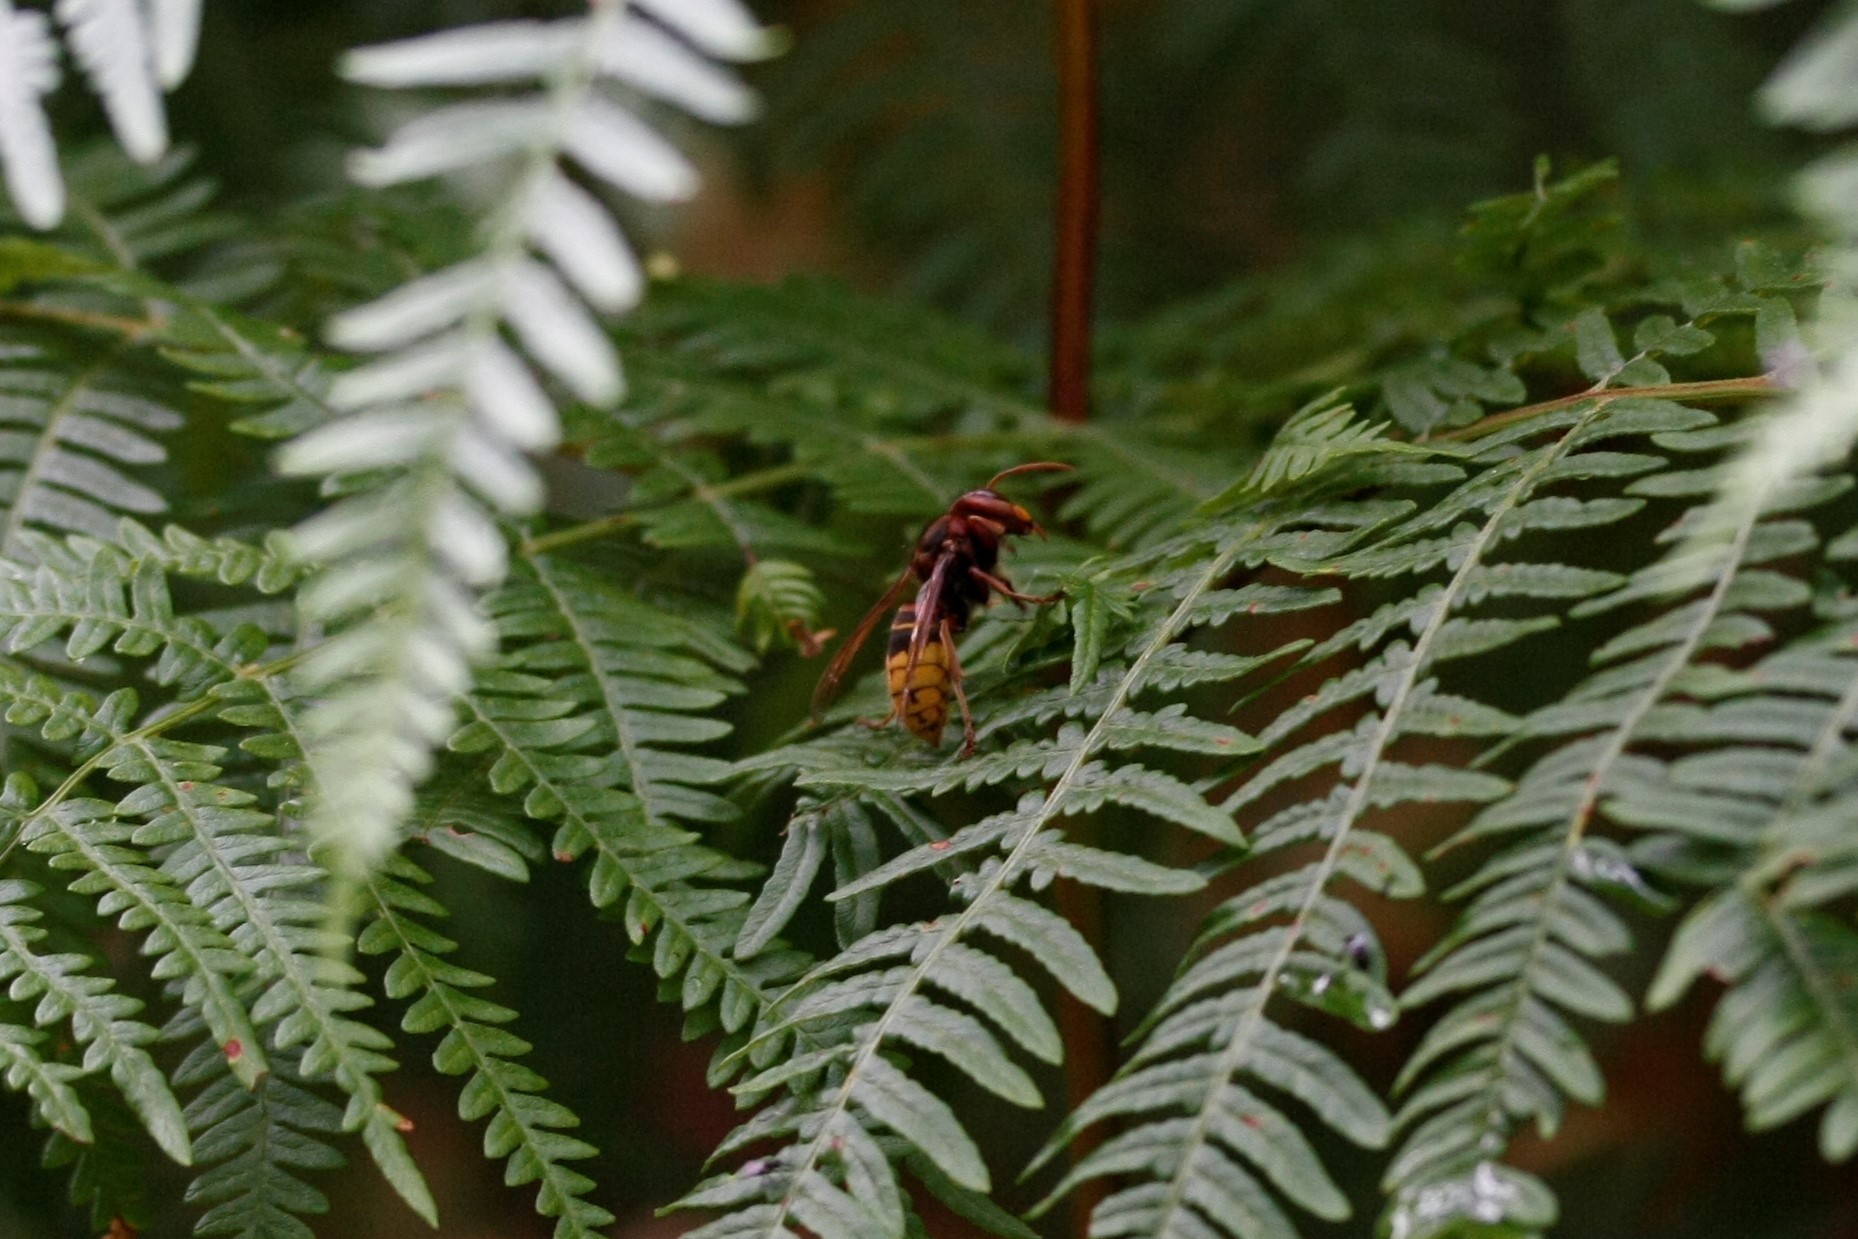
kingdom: Animalia
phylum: Arthropoda
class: Insecta
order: Hymenoptera
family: Vespidae
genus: Vespa
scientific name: Vespa crabro
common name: Hornet
